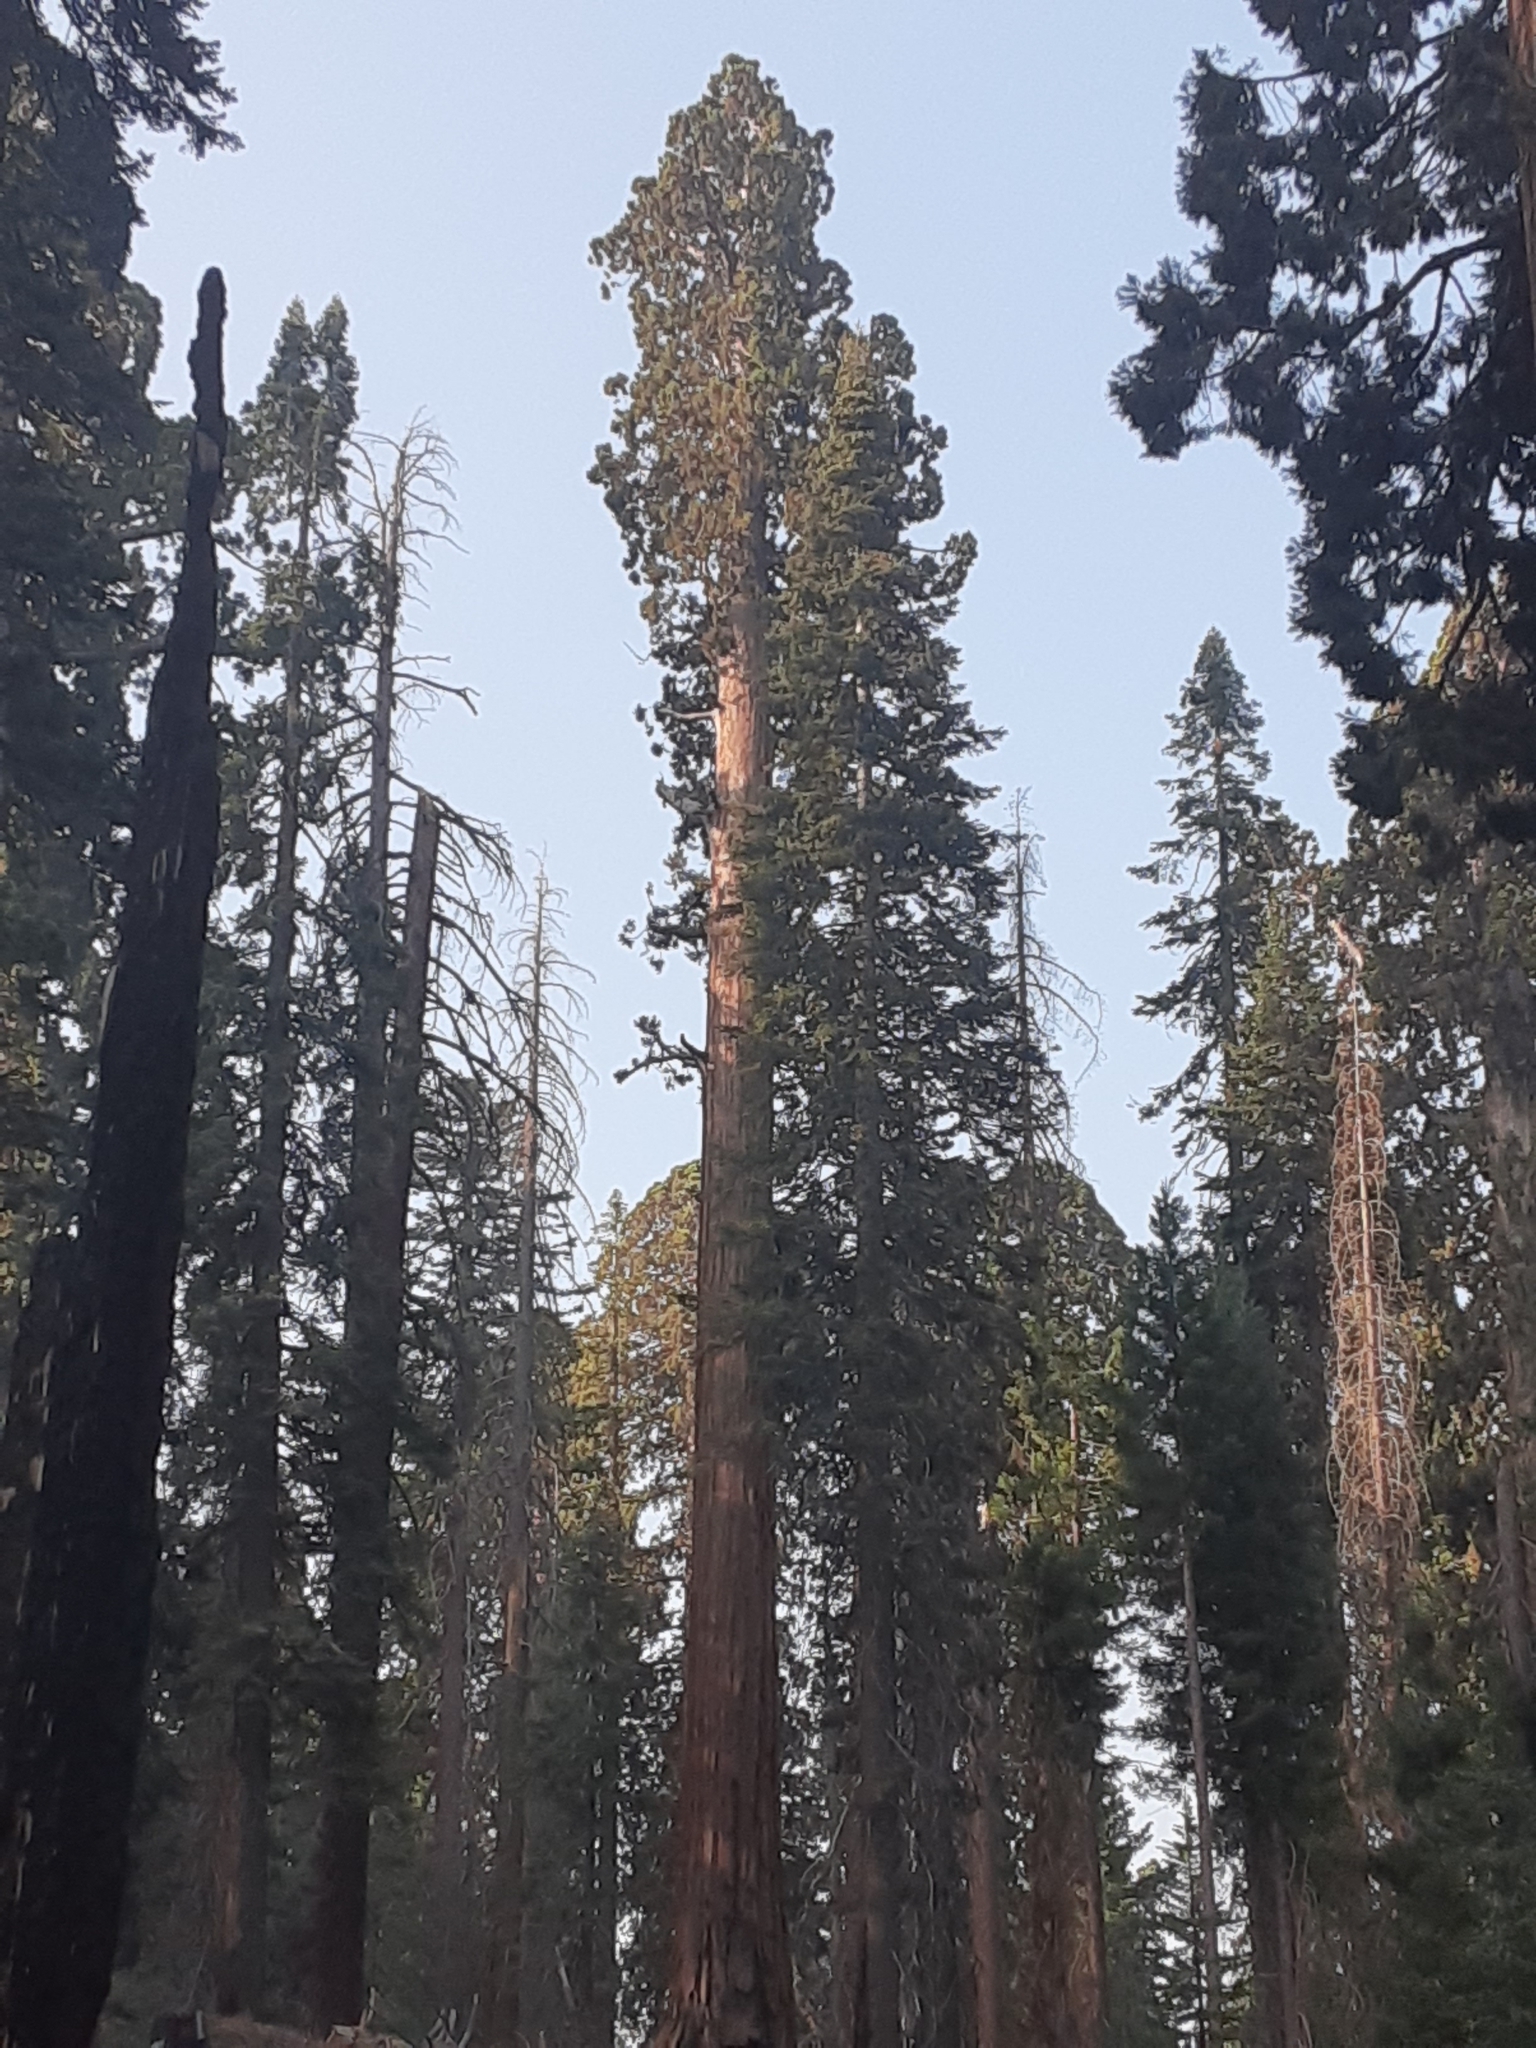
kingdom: Plantae
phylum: Tracheophyta
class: Pinopsida
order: Pinales
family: Cupressaceae
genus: Sequoiadendron
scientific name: Sequoiadendron giganteum
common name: Wellingtonia
